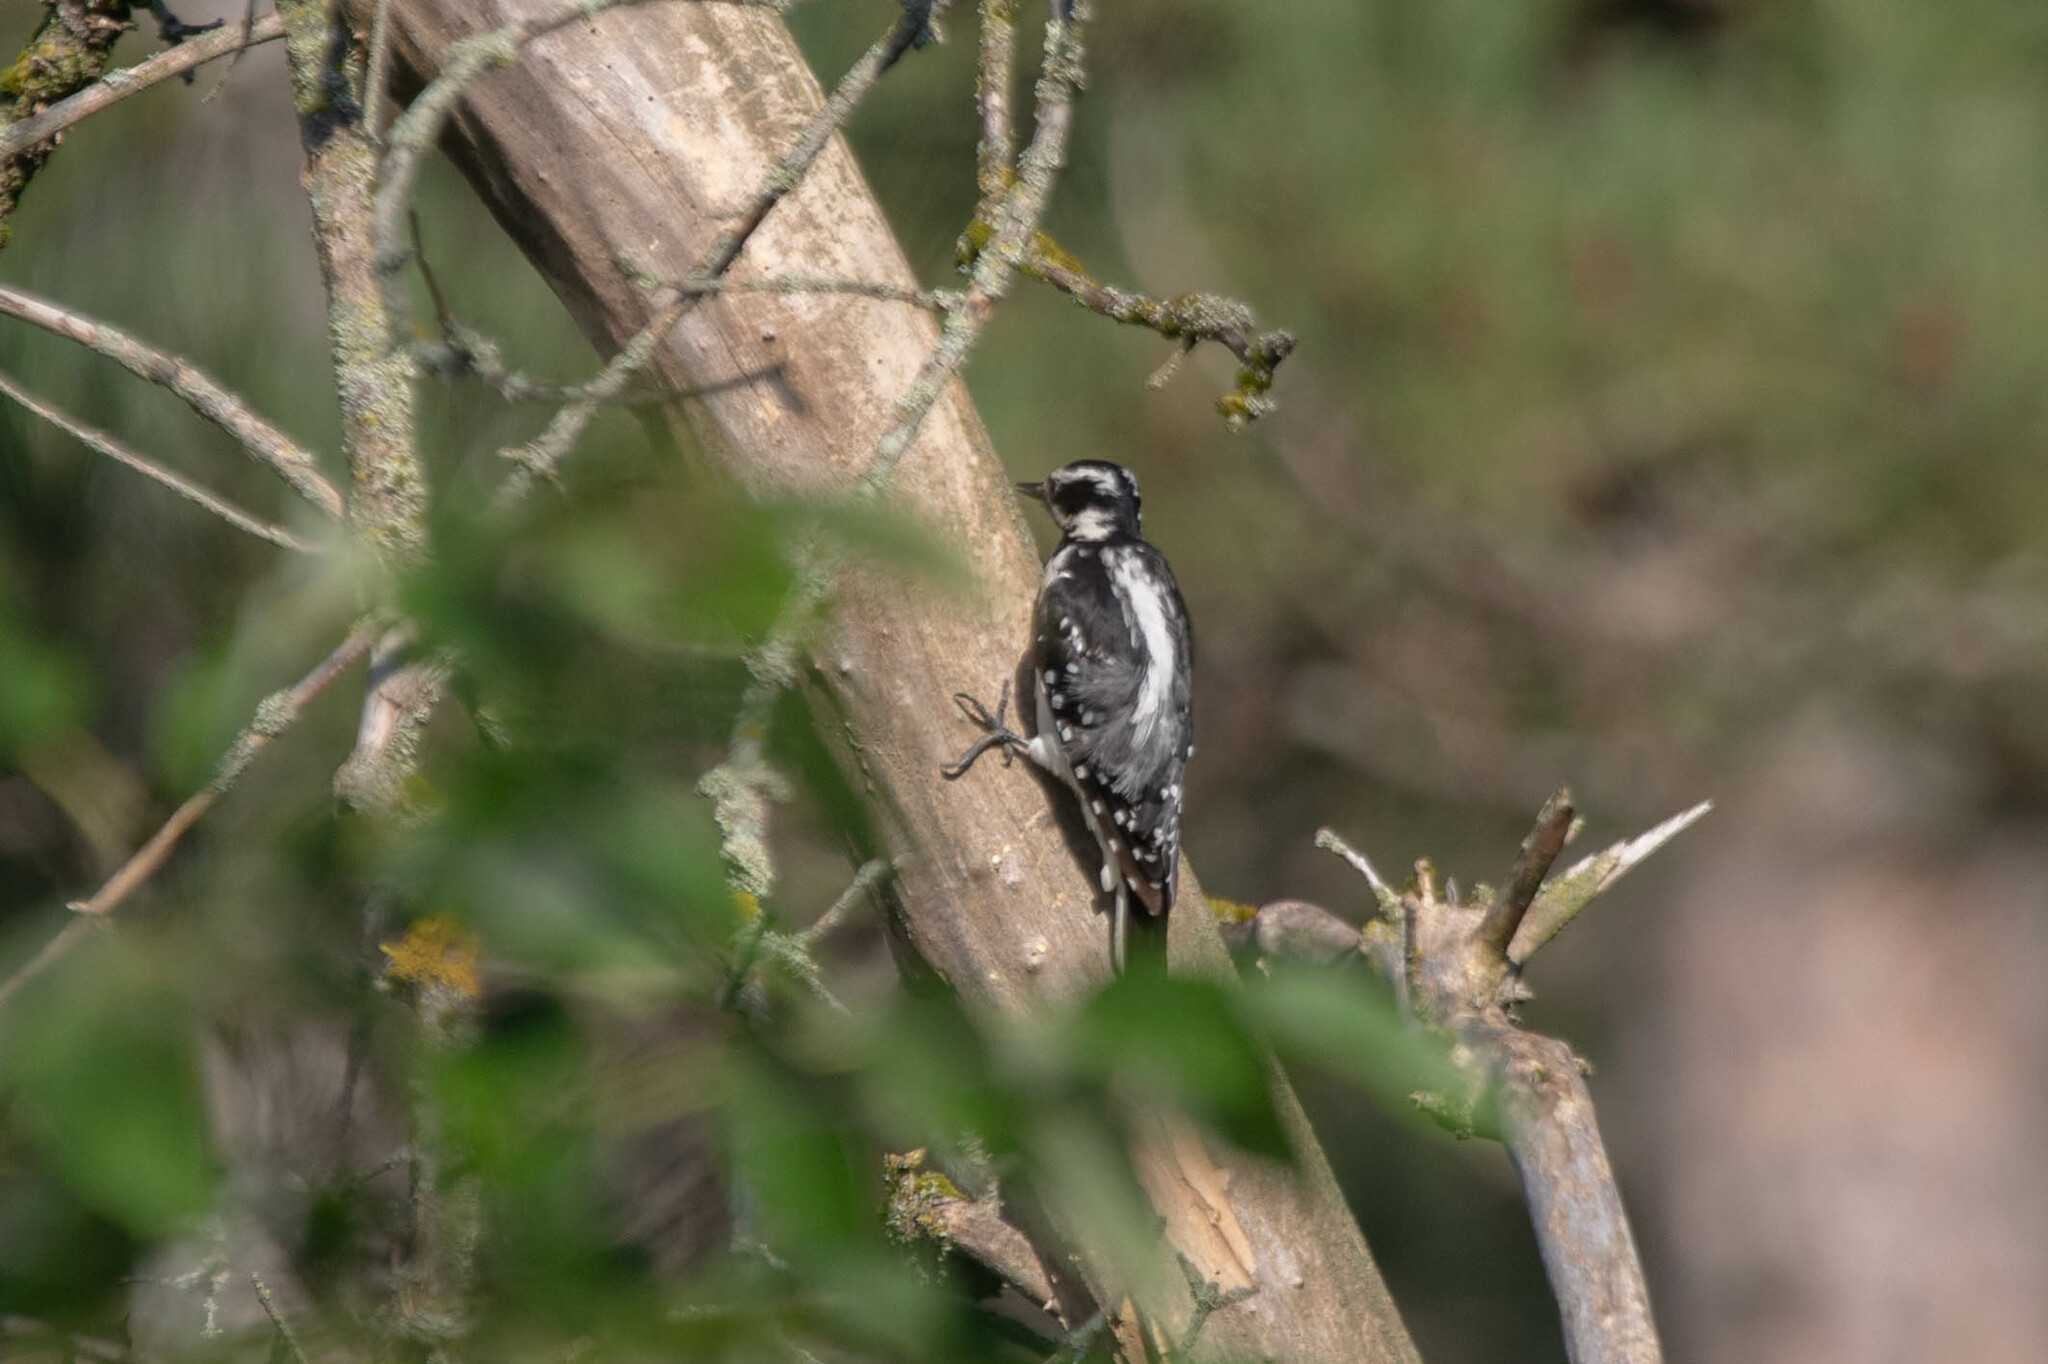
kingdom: Animalia
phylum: Chordata
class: Aves
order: Piciformes
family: Picidae
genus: Leuconotopicus
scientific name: Leuconotopicus villosus
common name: Hairy woodpecker
